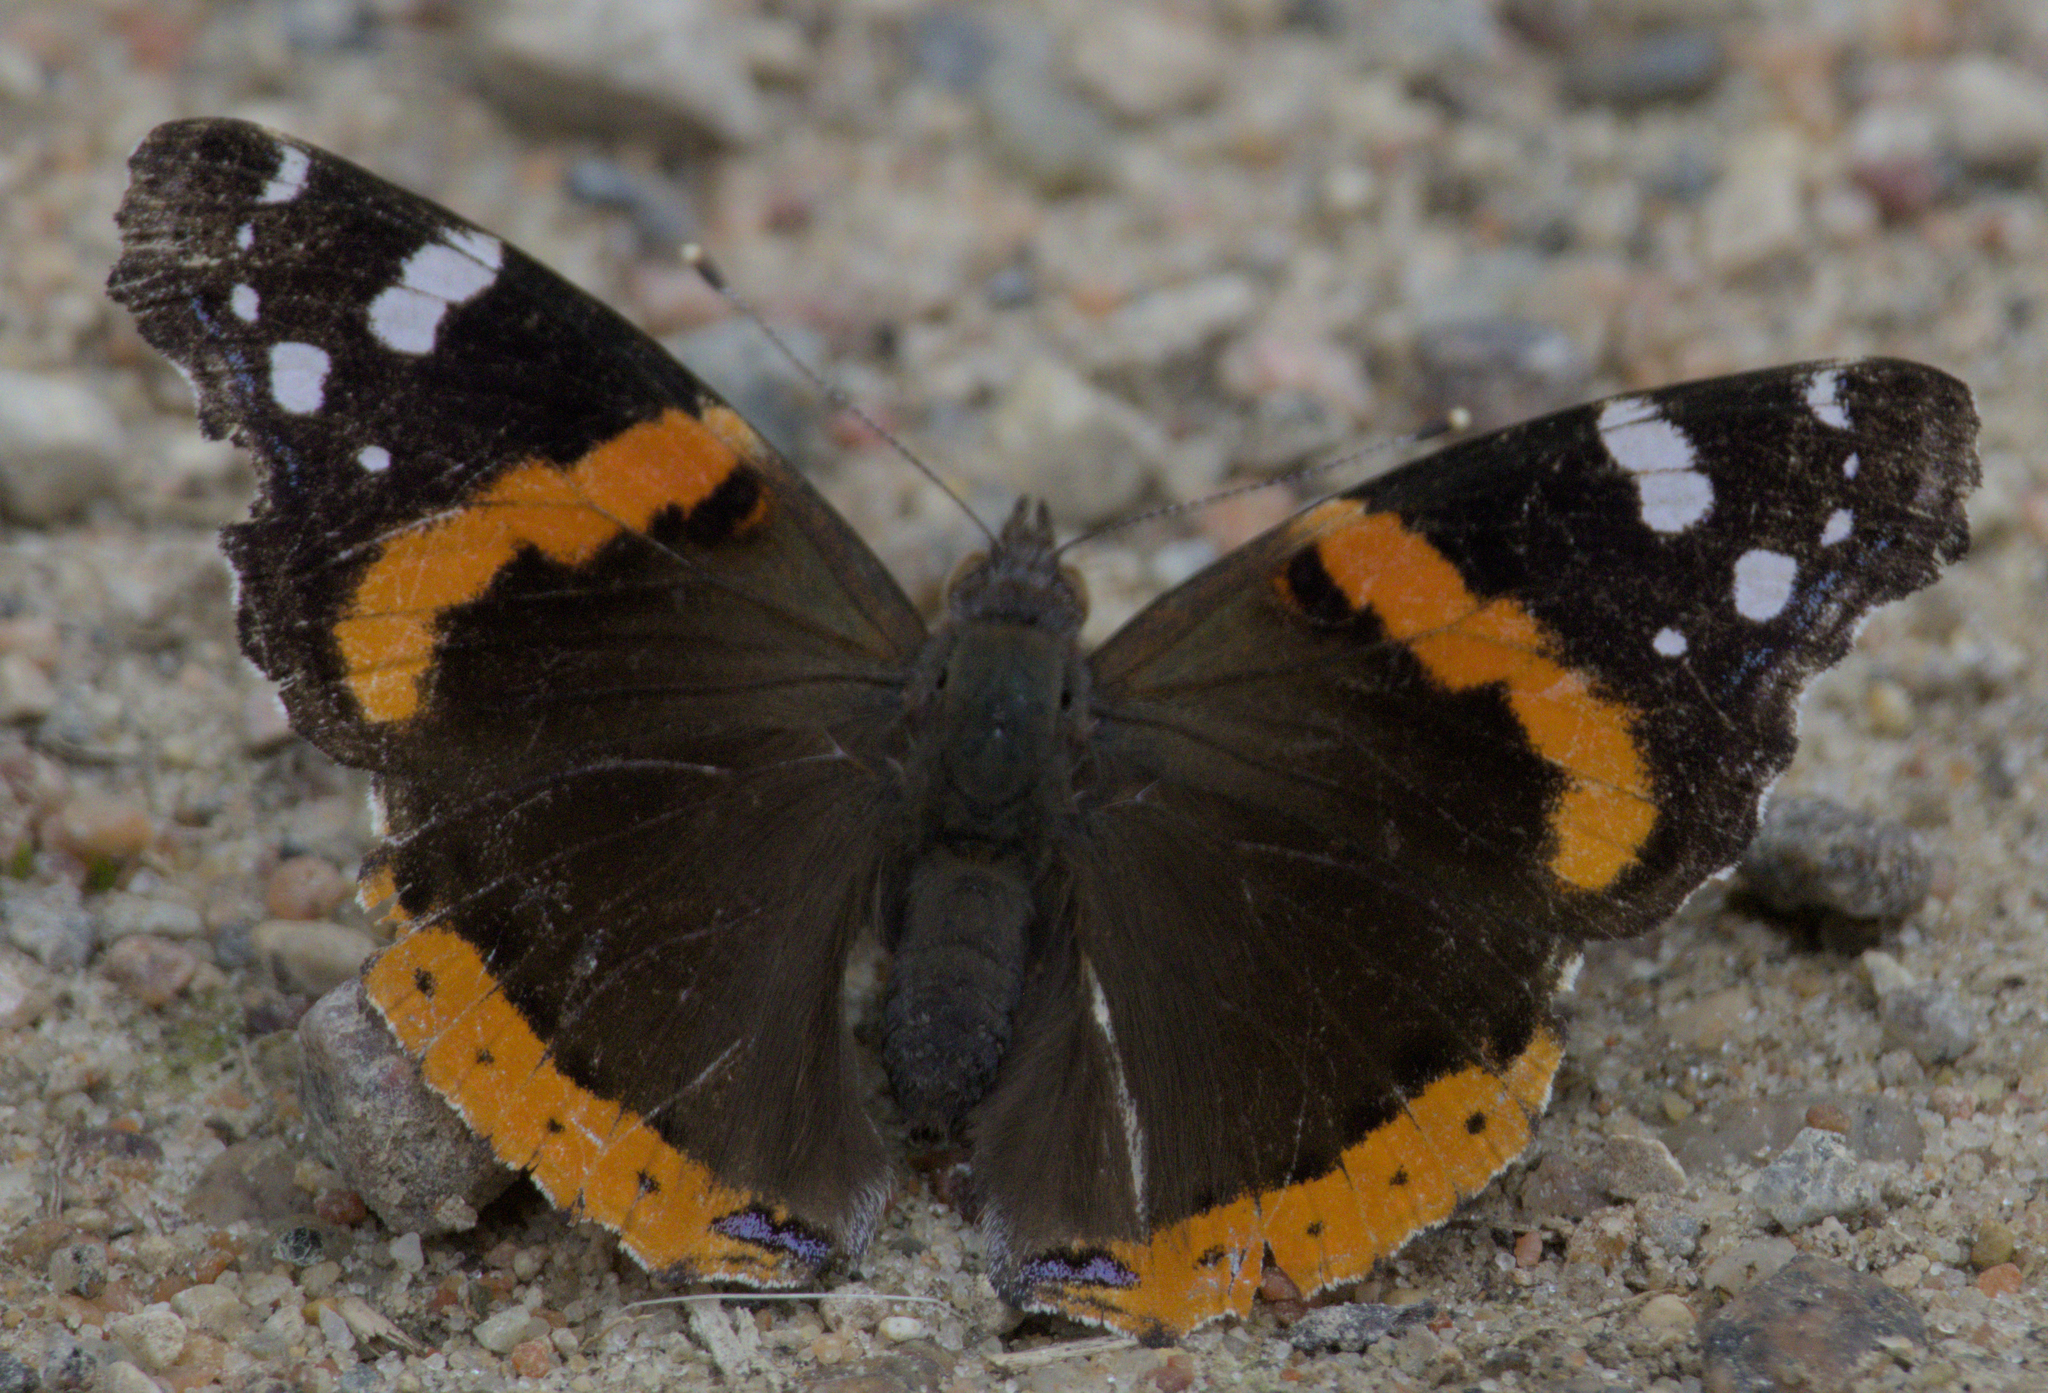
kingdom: Animalia
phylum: Arthropoda
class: Insecta
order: Lepidoptera
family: Nymphalidae
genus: Vanessa
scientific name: Vanessa atalanta
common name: Red admiral
